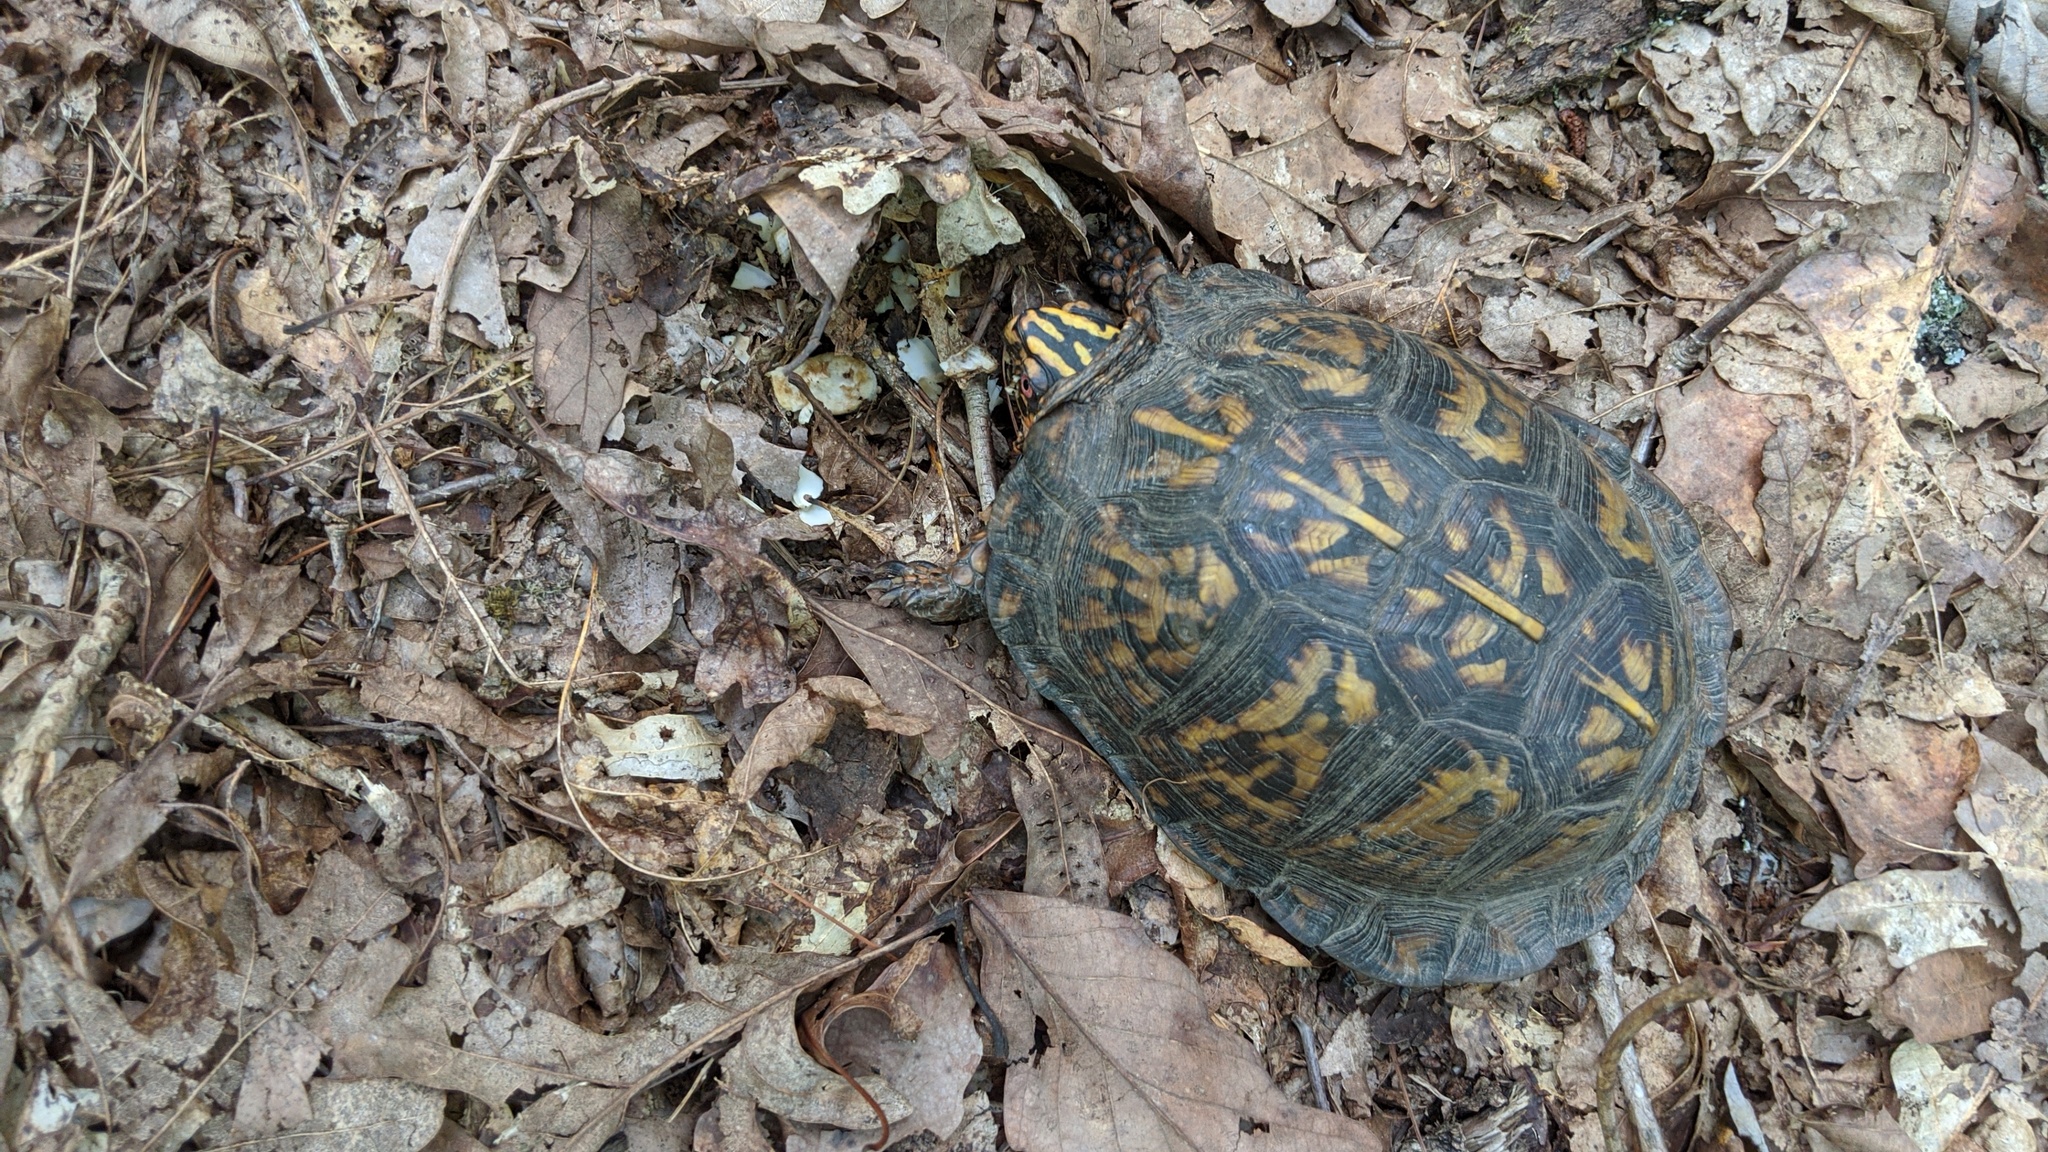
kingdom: Animalia
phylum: Chordata
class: Testudines
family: Emydidae
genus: Terrapene
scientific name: Terrapene carolina
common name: Common box turtle
